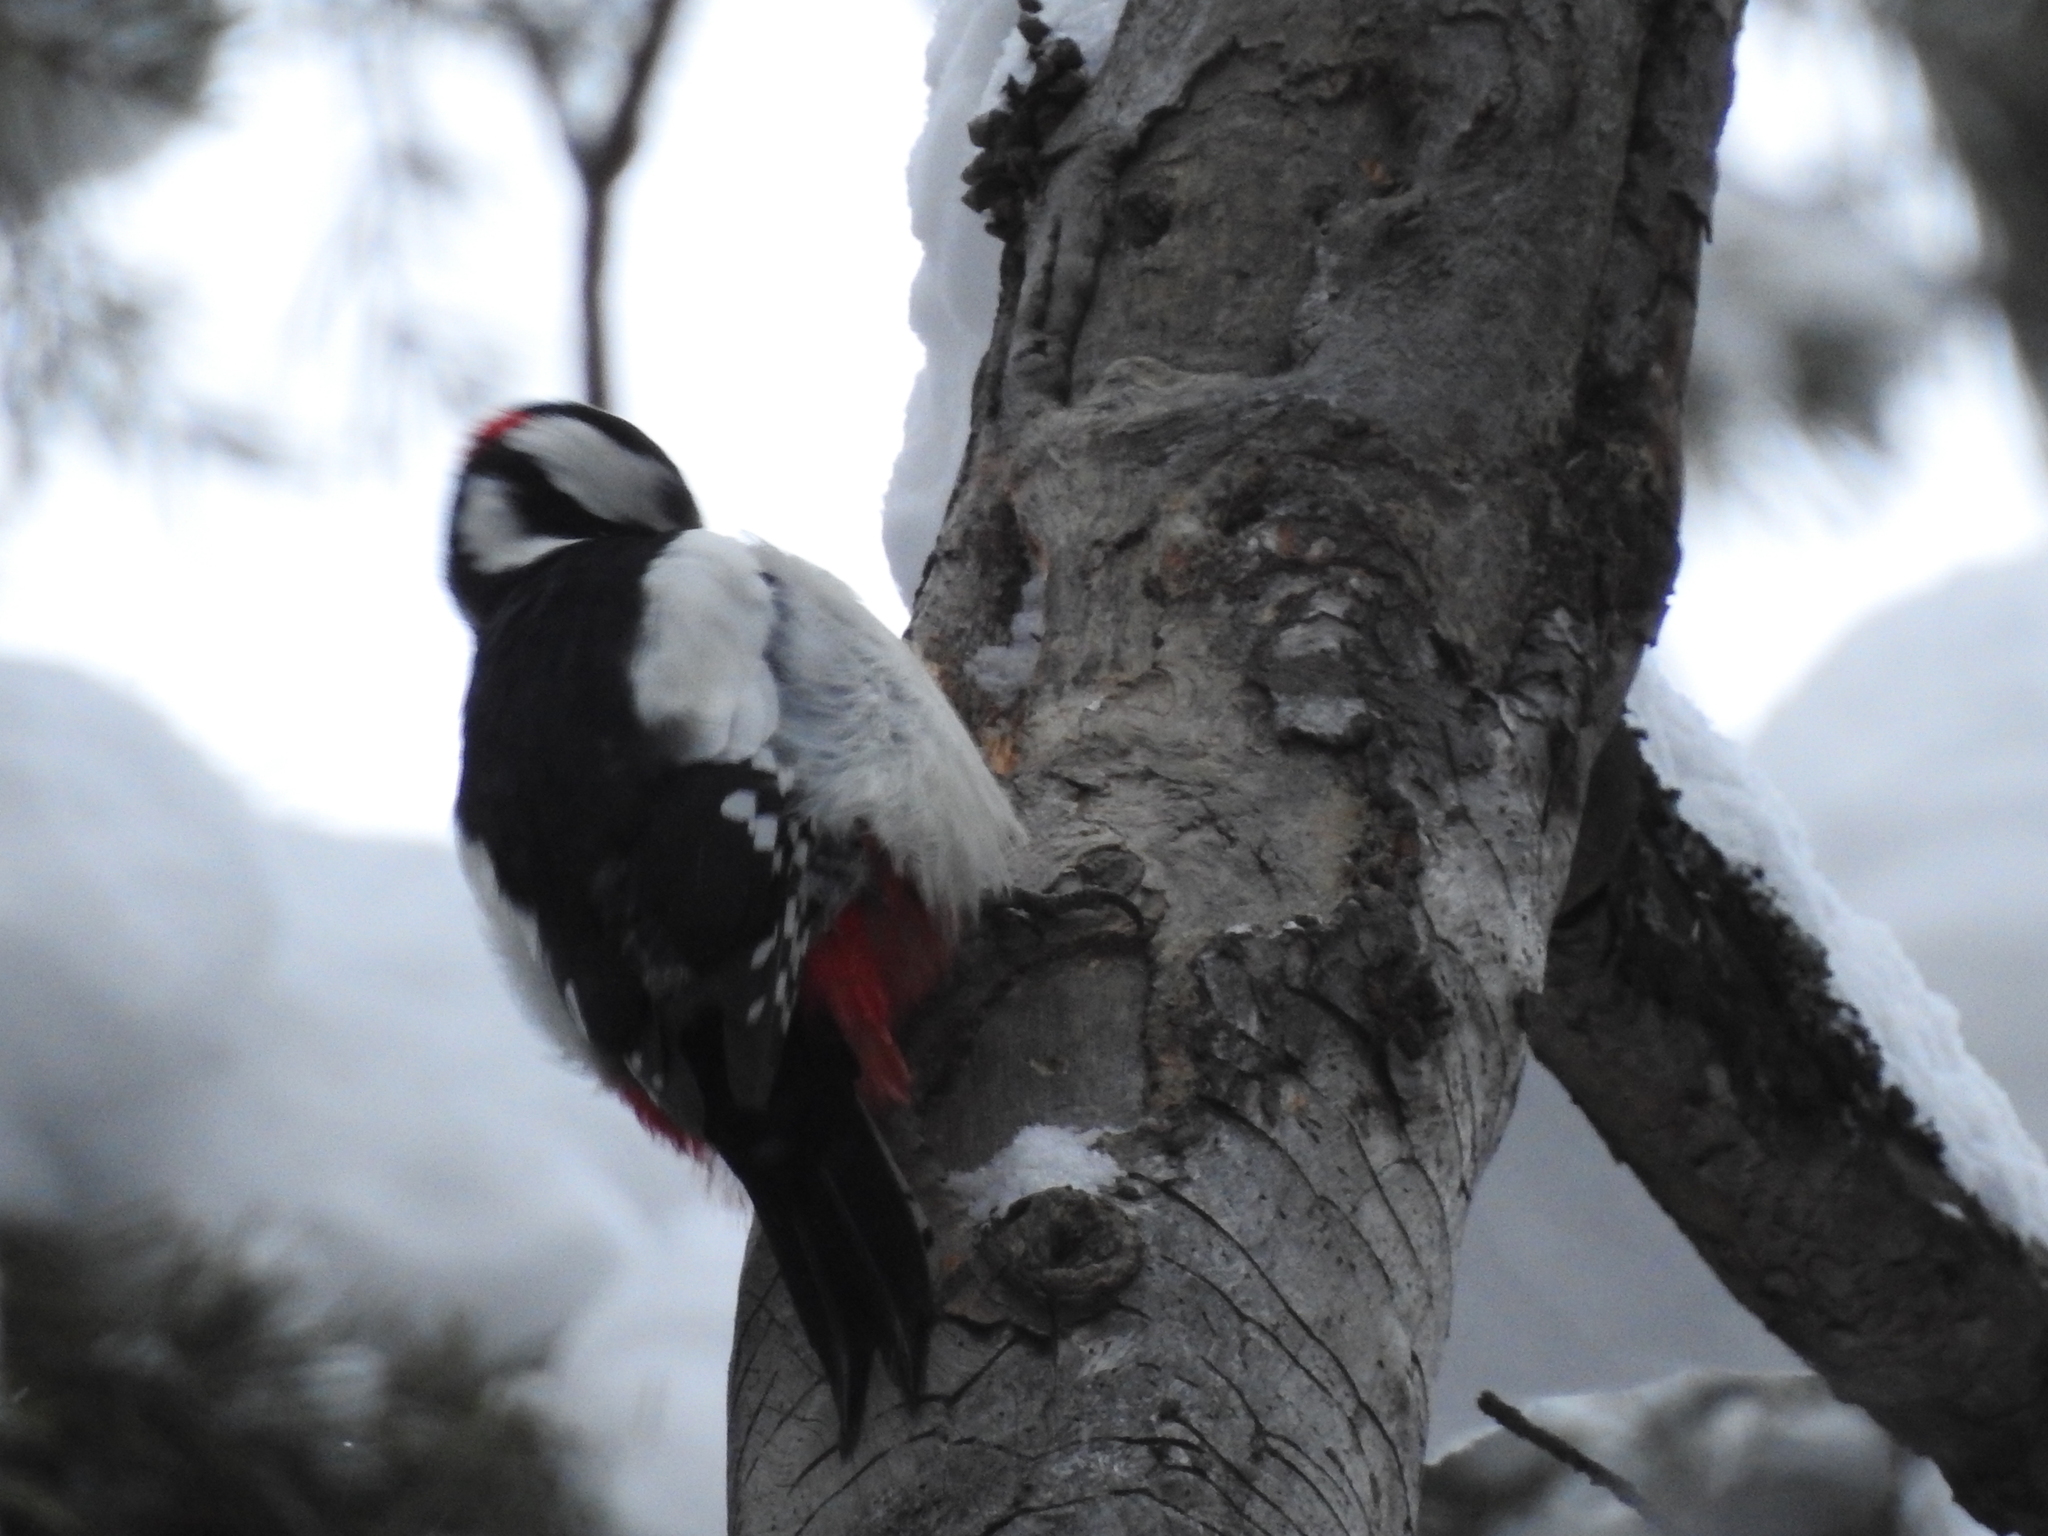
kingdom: Animalia
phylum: Chordata
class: Aves
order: Piciformes
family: Picidae
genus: Dendrocopos
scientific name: Dendrocopos major
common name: Great spotted woodpecker
